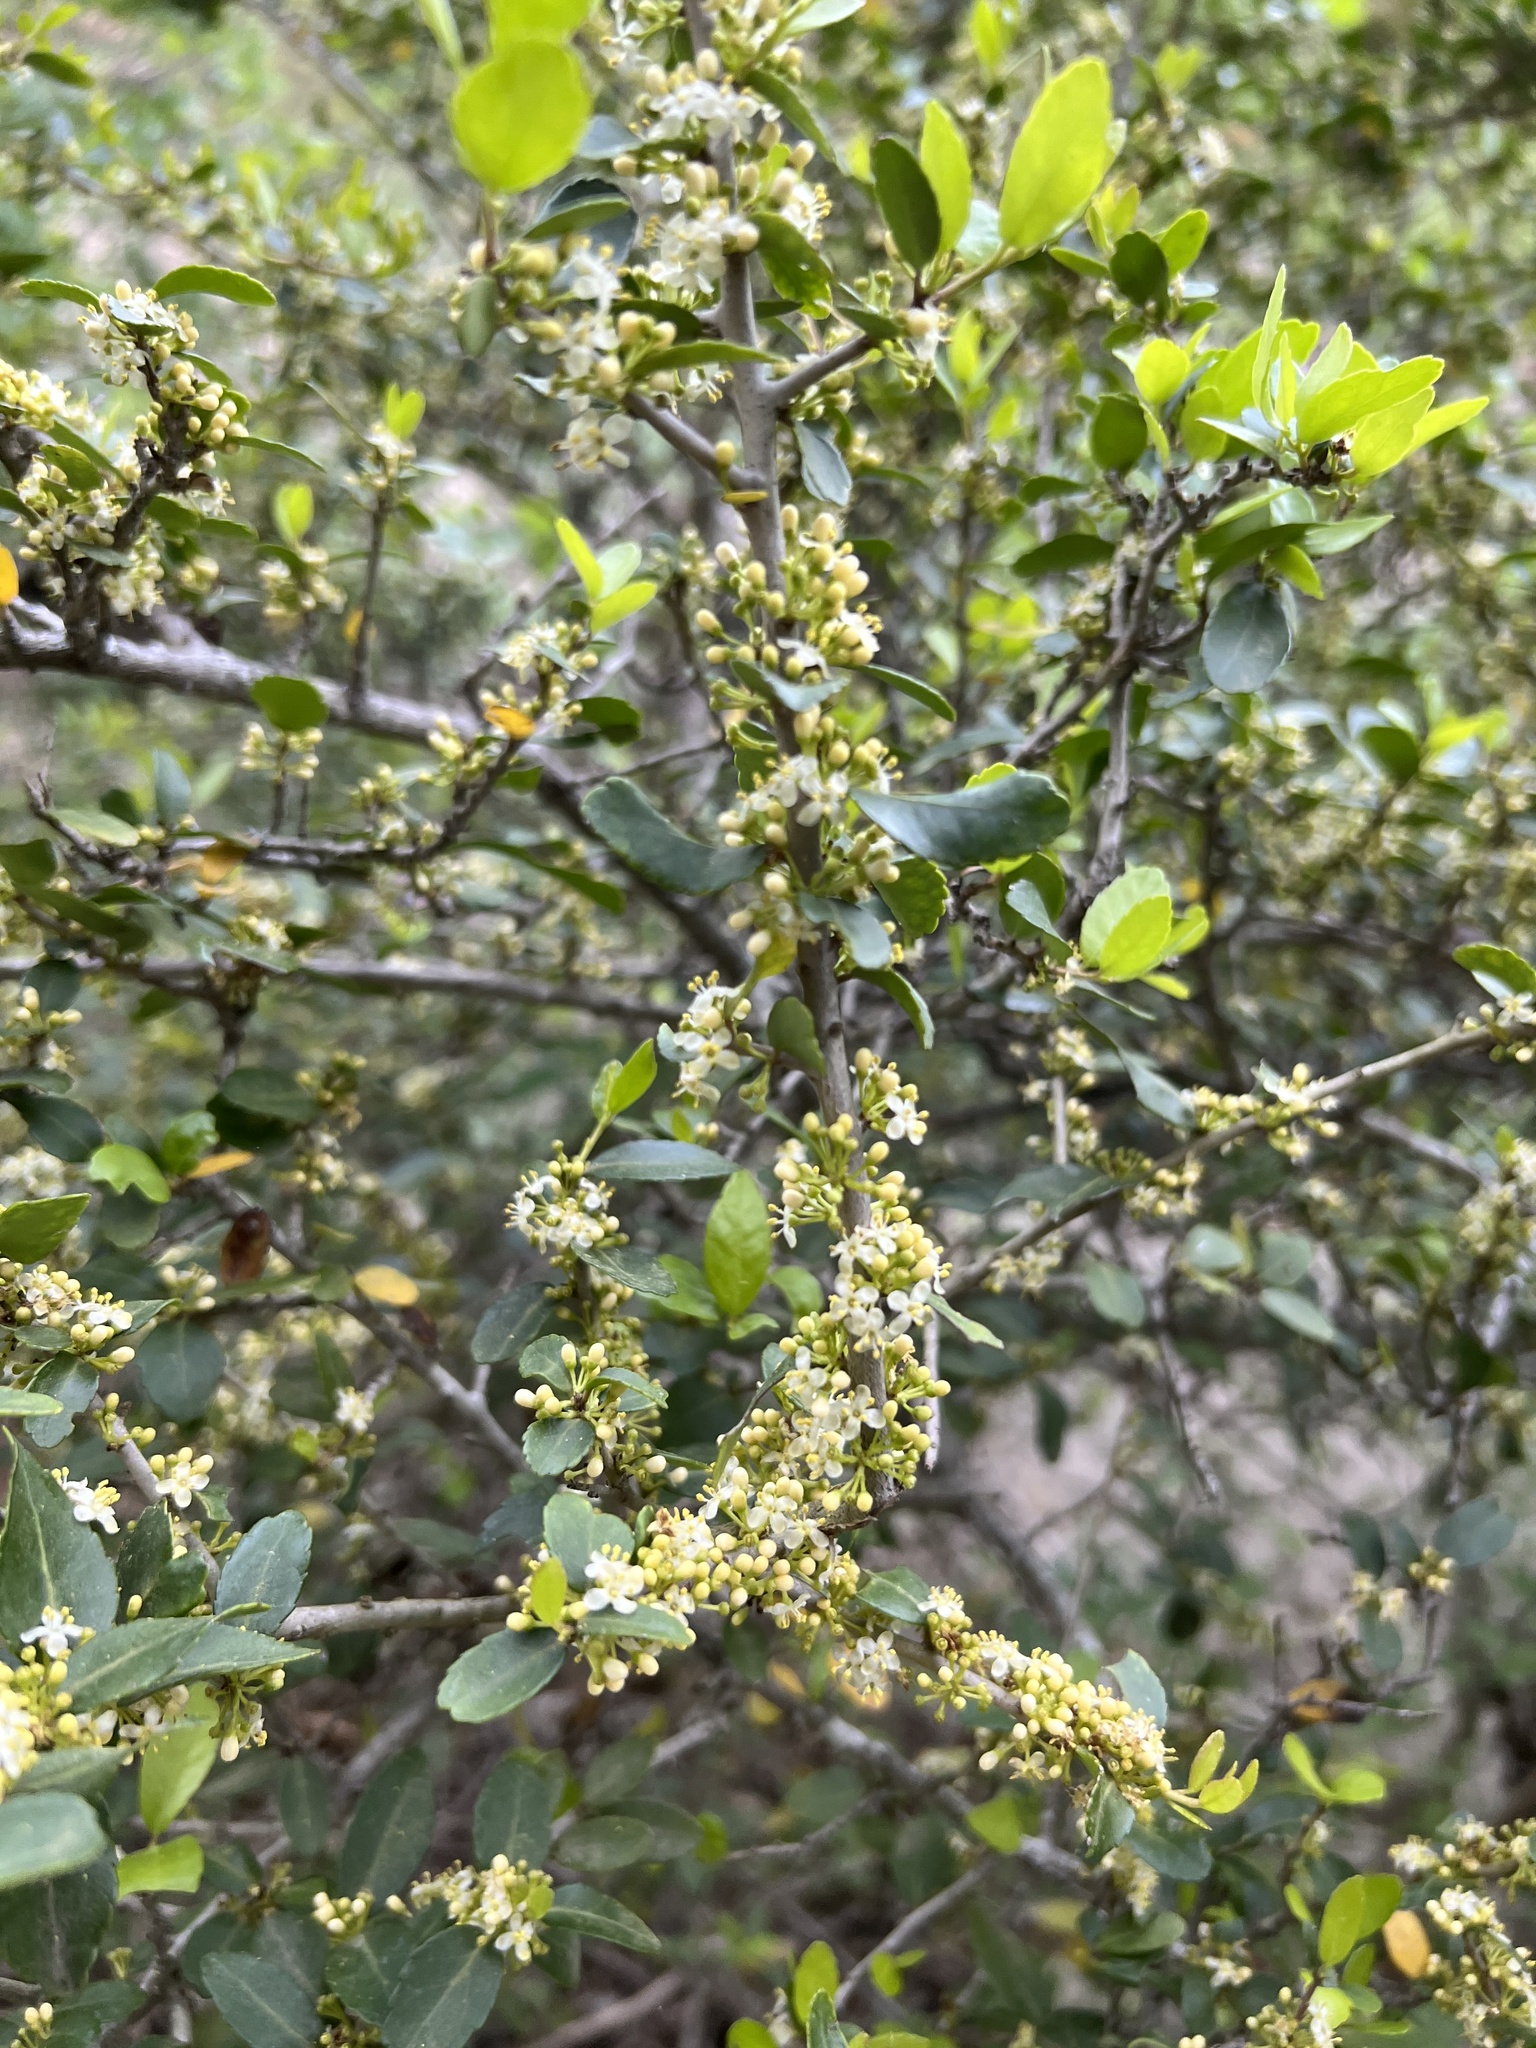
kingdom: Plantae
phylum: Tracheophyta
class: Magnoliopsida
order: Aquifoliales
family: Aquifoliaceae
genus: Ilex
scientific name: Ilex vomitoria
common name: Yaupon holly
